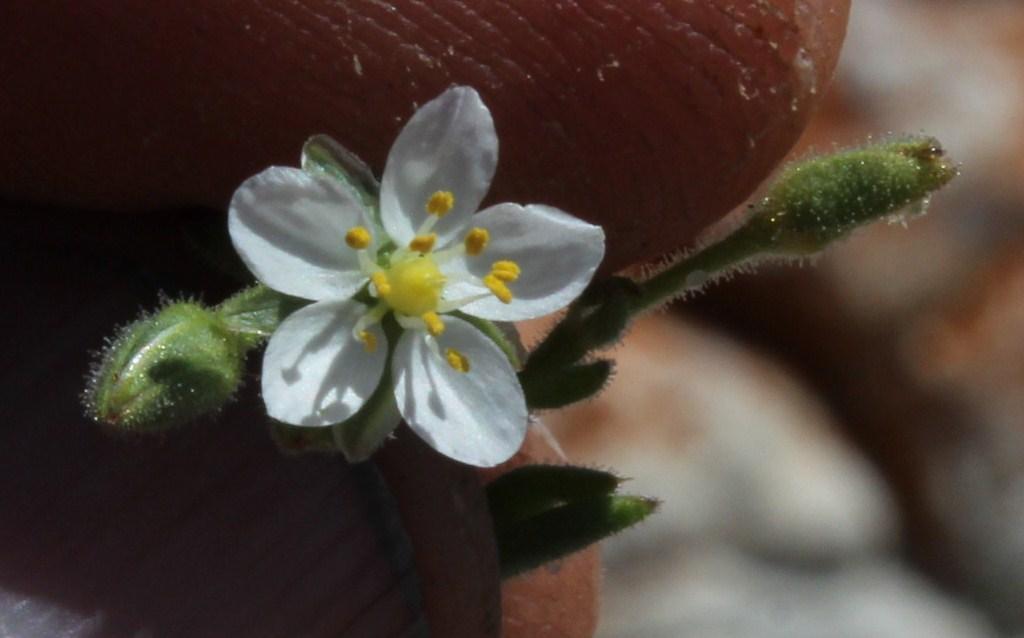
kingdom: Plantae
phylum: Tracheophyta
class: Magnoliopsida
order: Caryophyllales
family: Caryophyllaceae
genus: Spergularia
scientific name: Spergularia media
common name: Greater sea-spurrey
